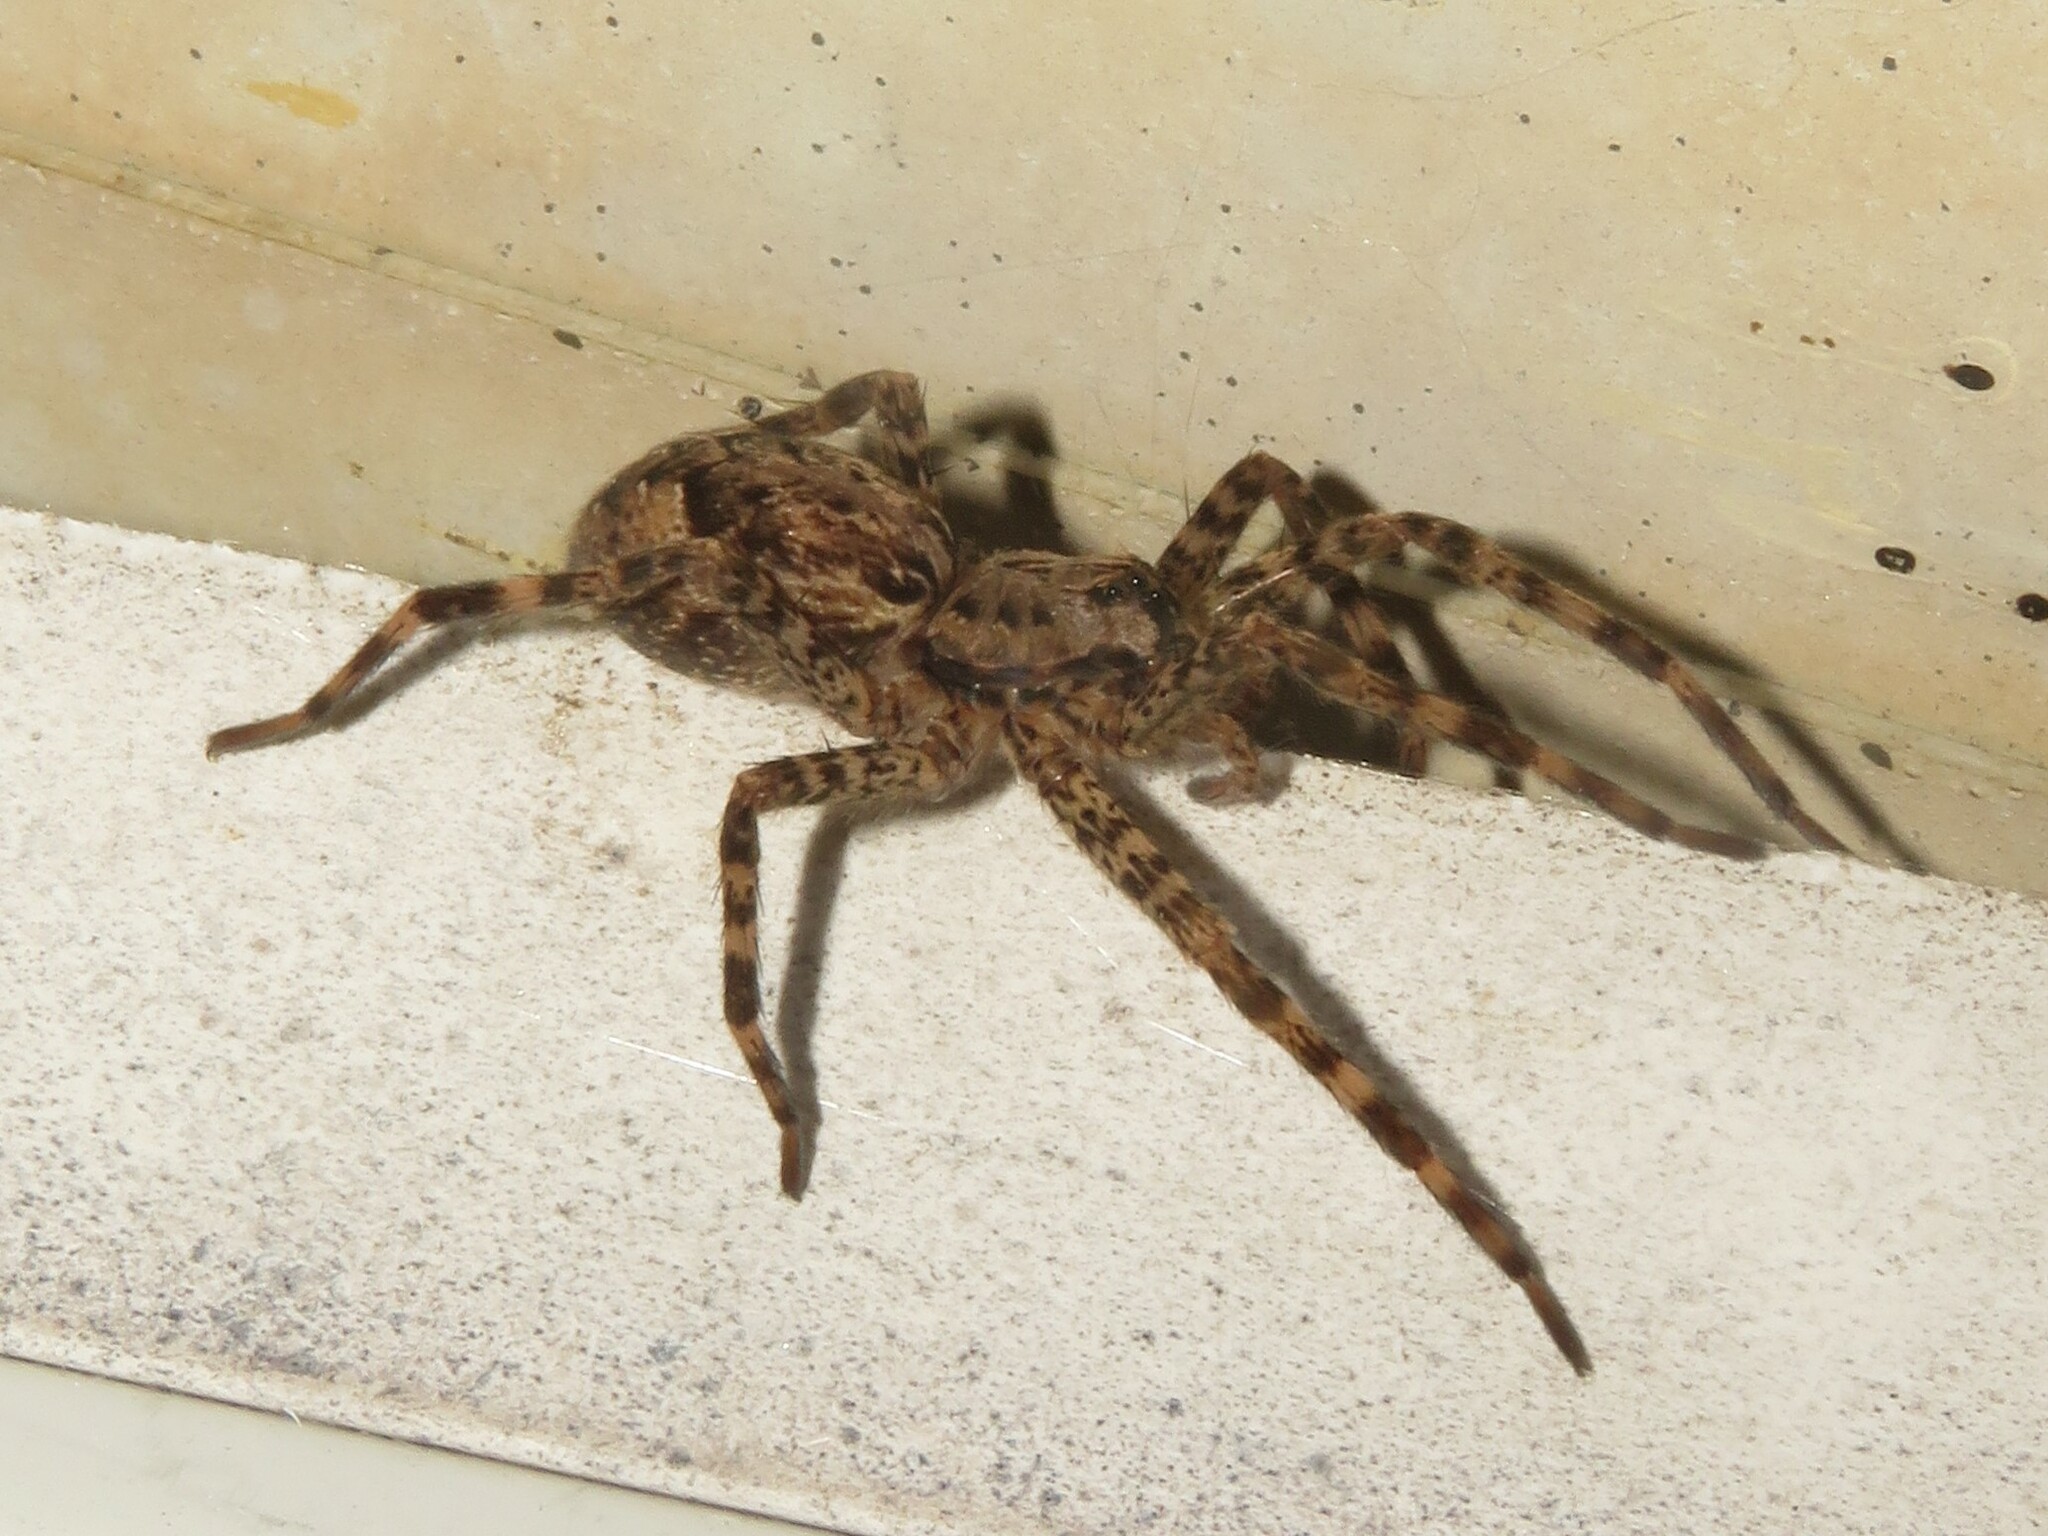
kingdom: Animalia
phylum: Arthropoda
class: Arachnida
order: Araneae
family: Pisauridae
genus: Dolomedes
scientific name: Dolomedes tenebrosus
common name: Dark fishing spider
